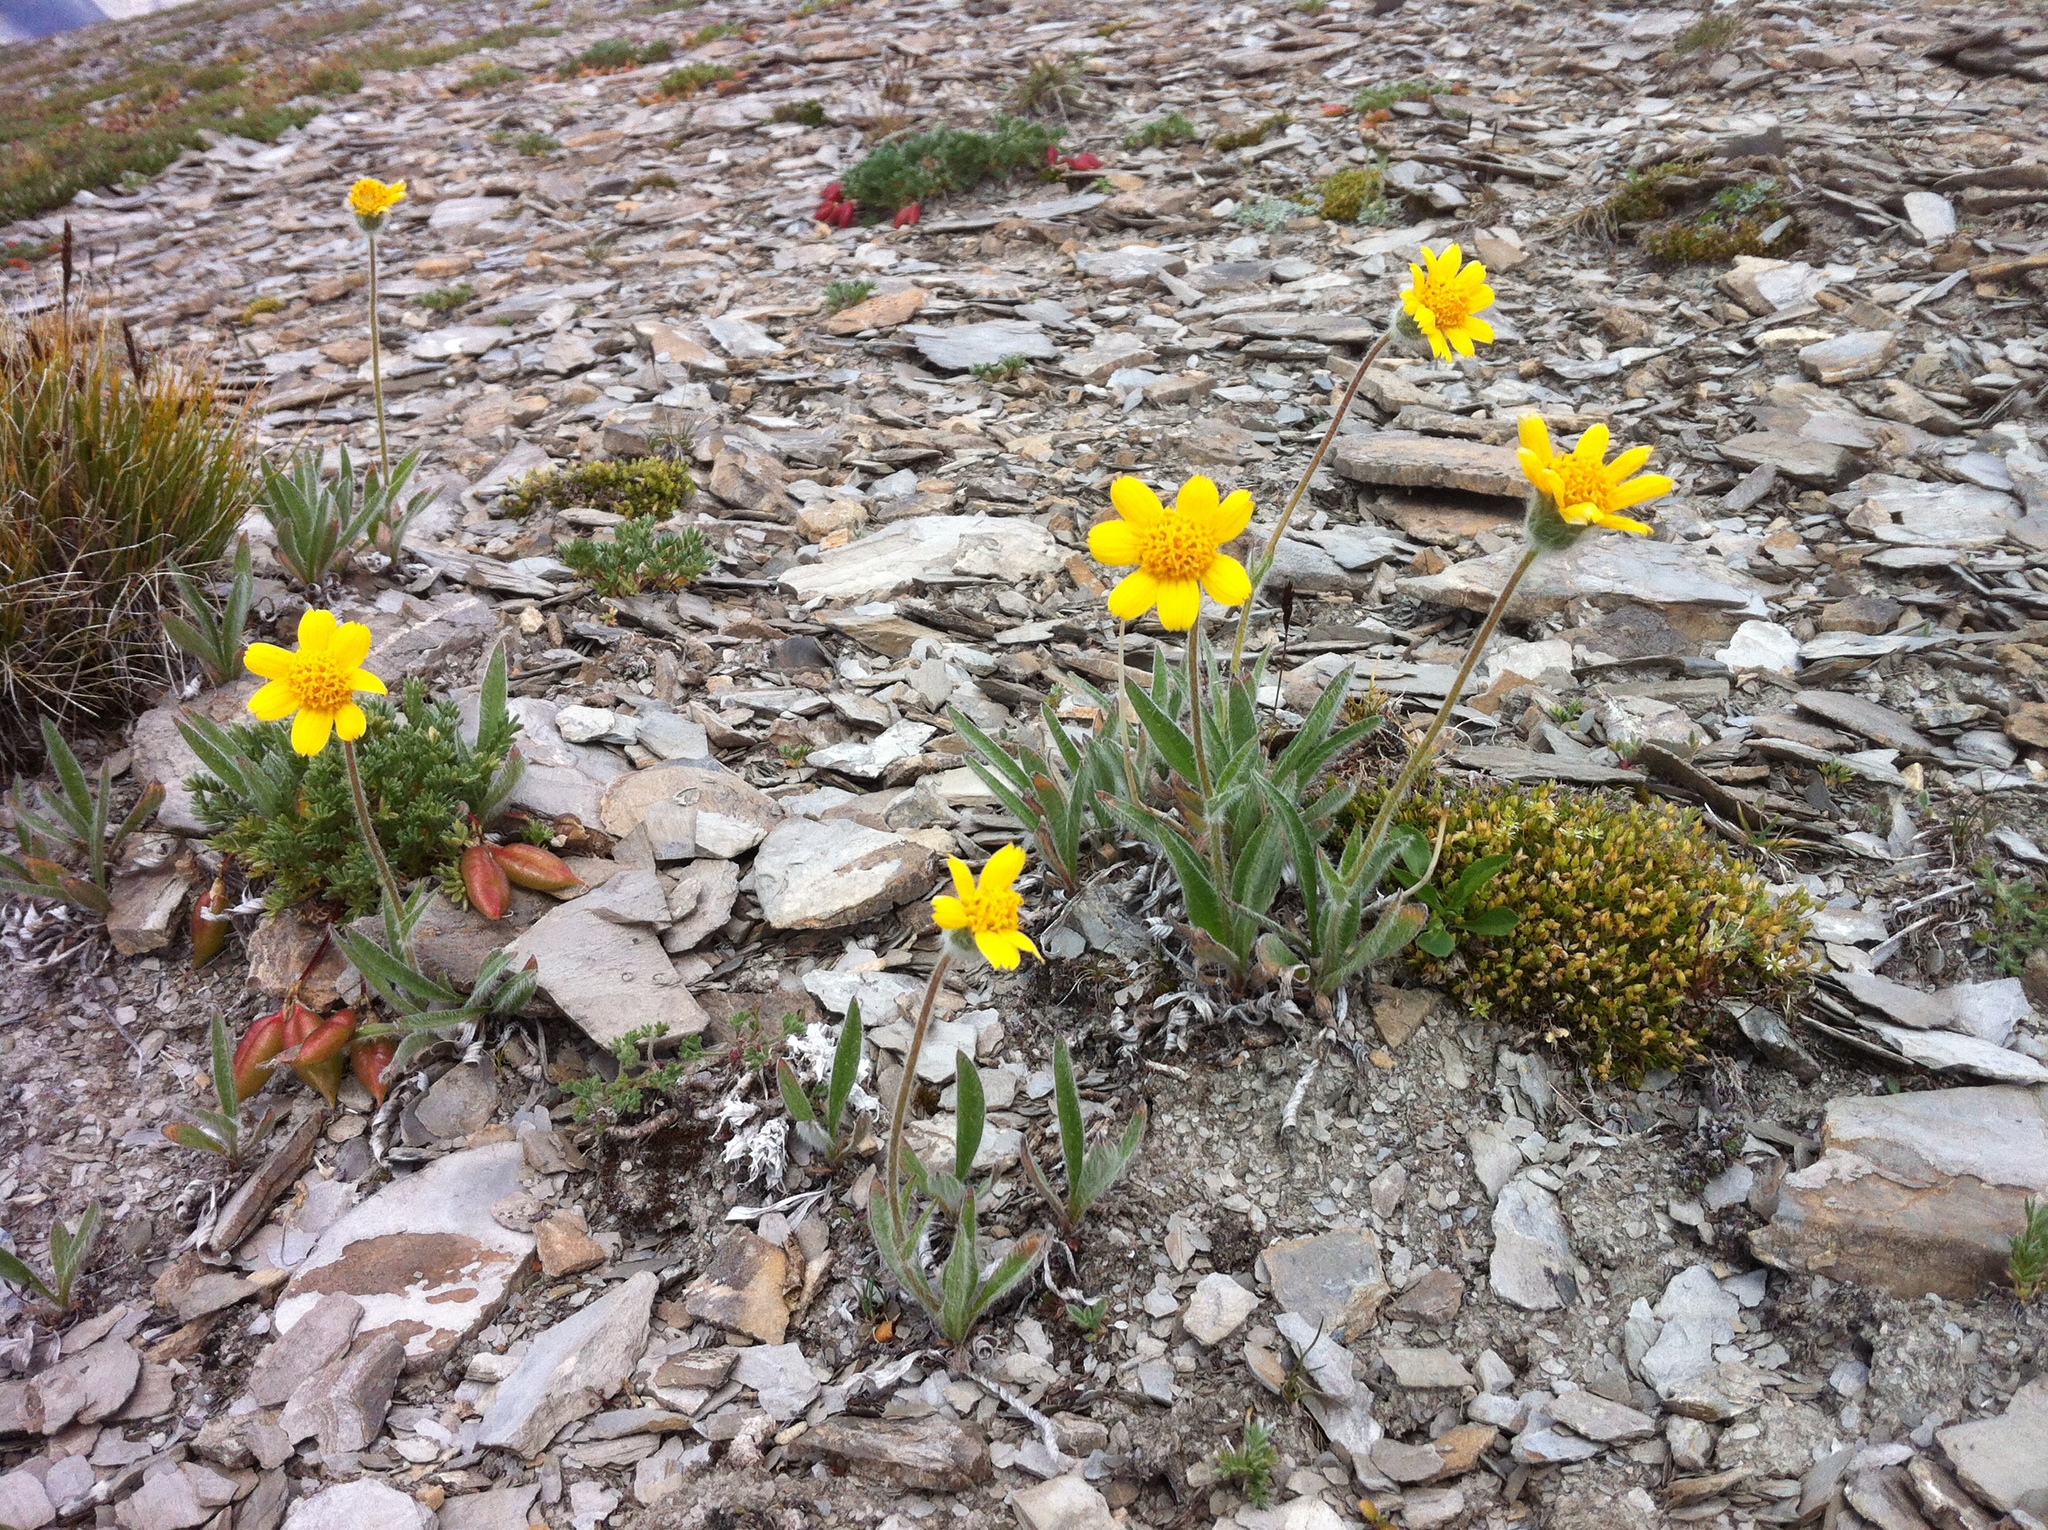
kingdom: Plantae
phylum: Tracheophyta
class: Magnoliopsida
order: Asterales
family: Asteraceae
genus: Arnica
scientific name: Arnica angustifolia
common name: Arctic arnica
